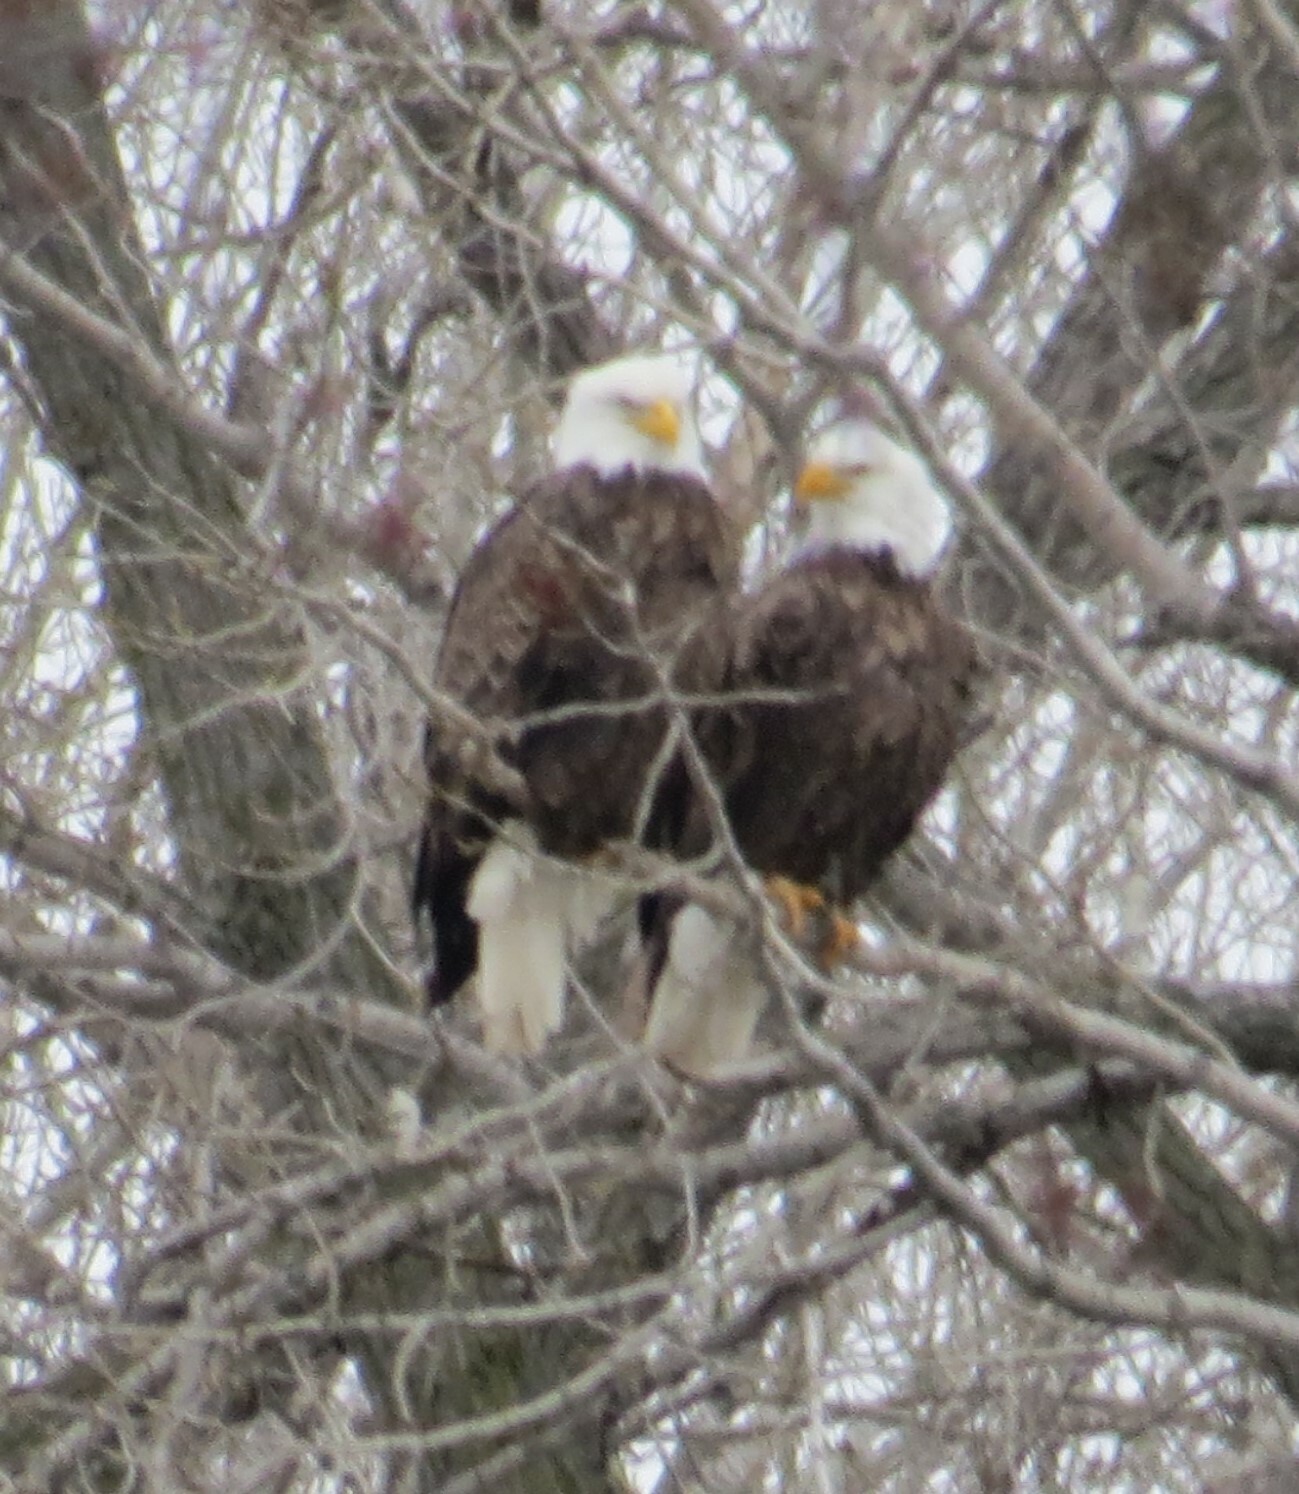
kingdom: Animalia
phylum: Chordata
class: Aves
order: Accipitriformes
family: Accipitridae
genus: Haliaeetus
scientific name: Haliaeetus leucocephalus
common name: Bald eagle
